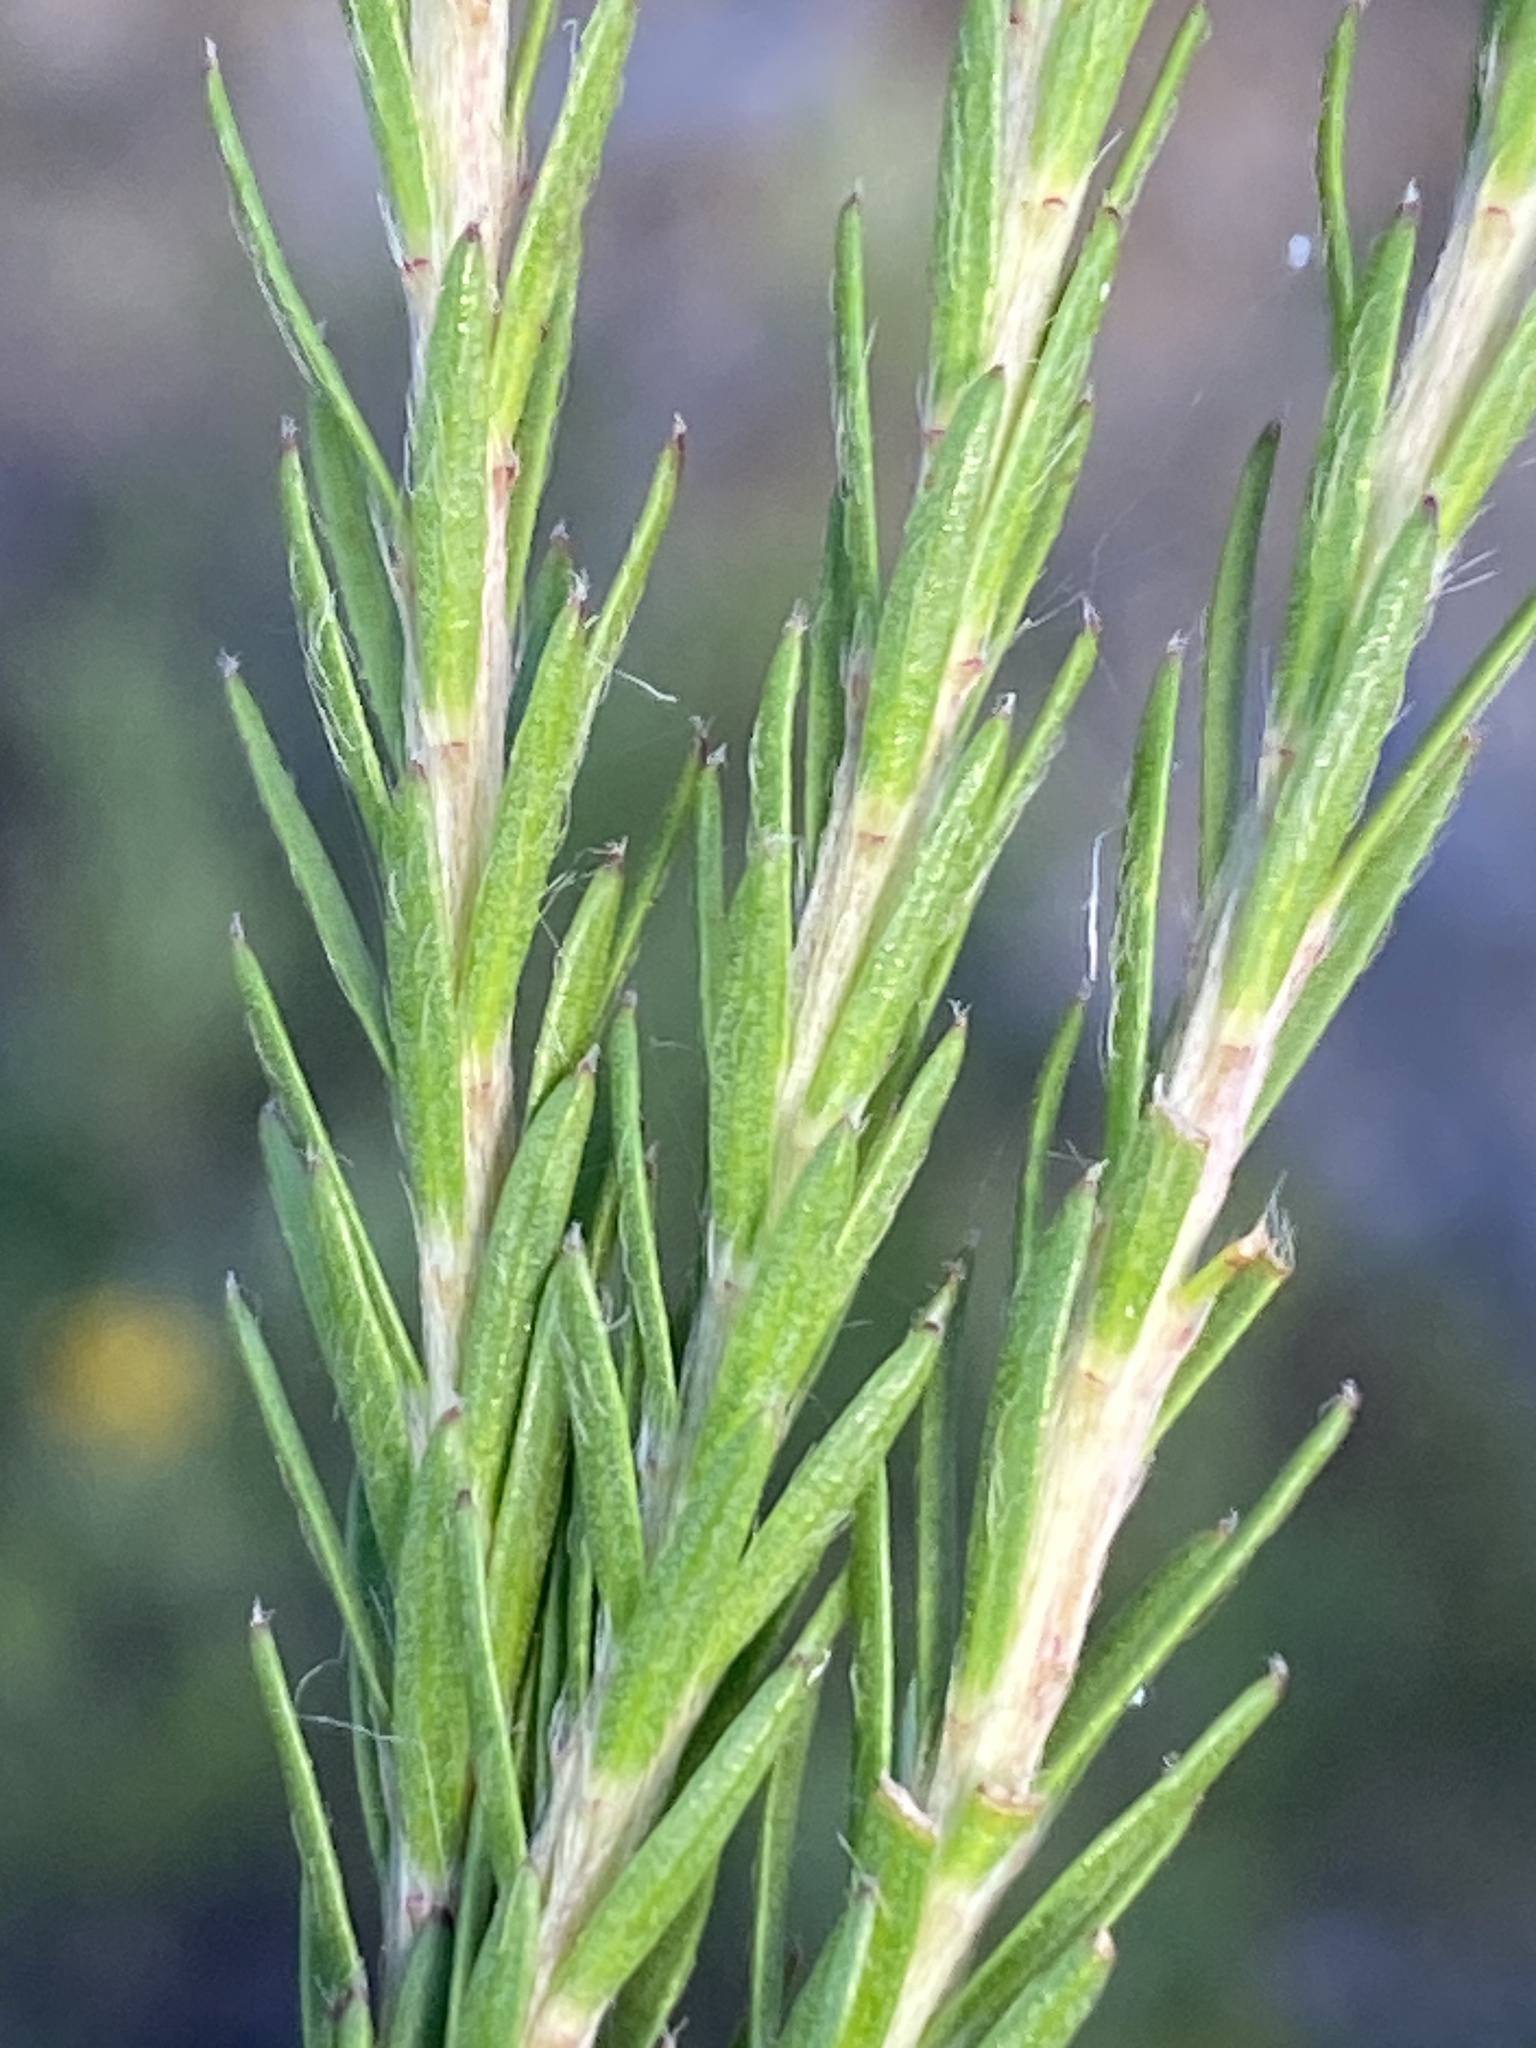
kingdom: Plantae
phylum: Tracheophyta
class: Magnoliopsida
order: Malvales
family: Thymelaeaceae
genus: Gnidia
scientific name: Gnidia squarrosa
